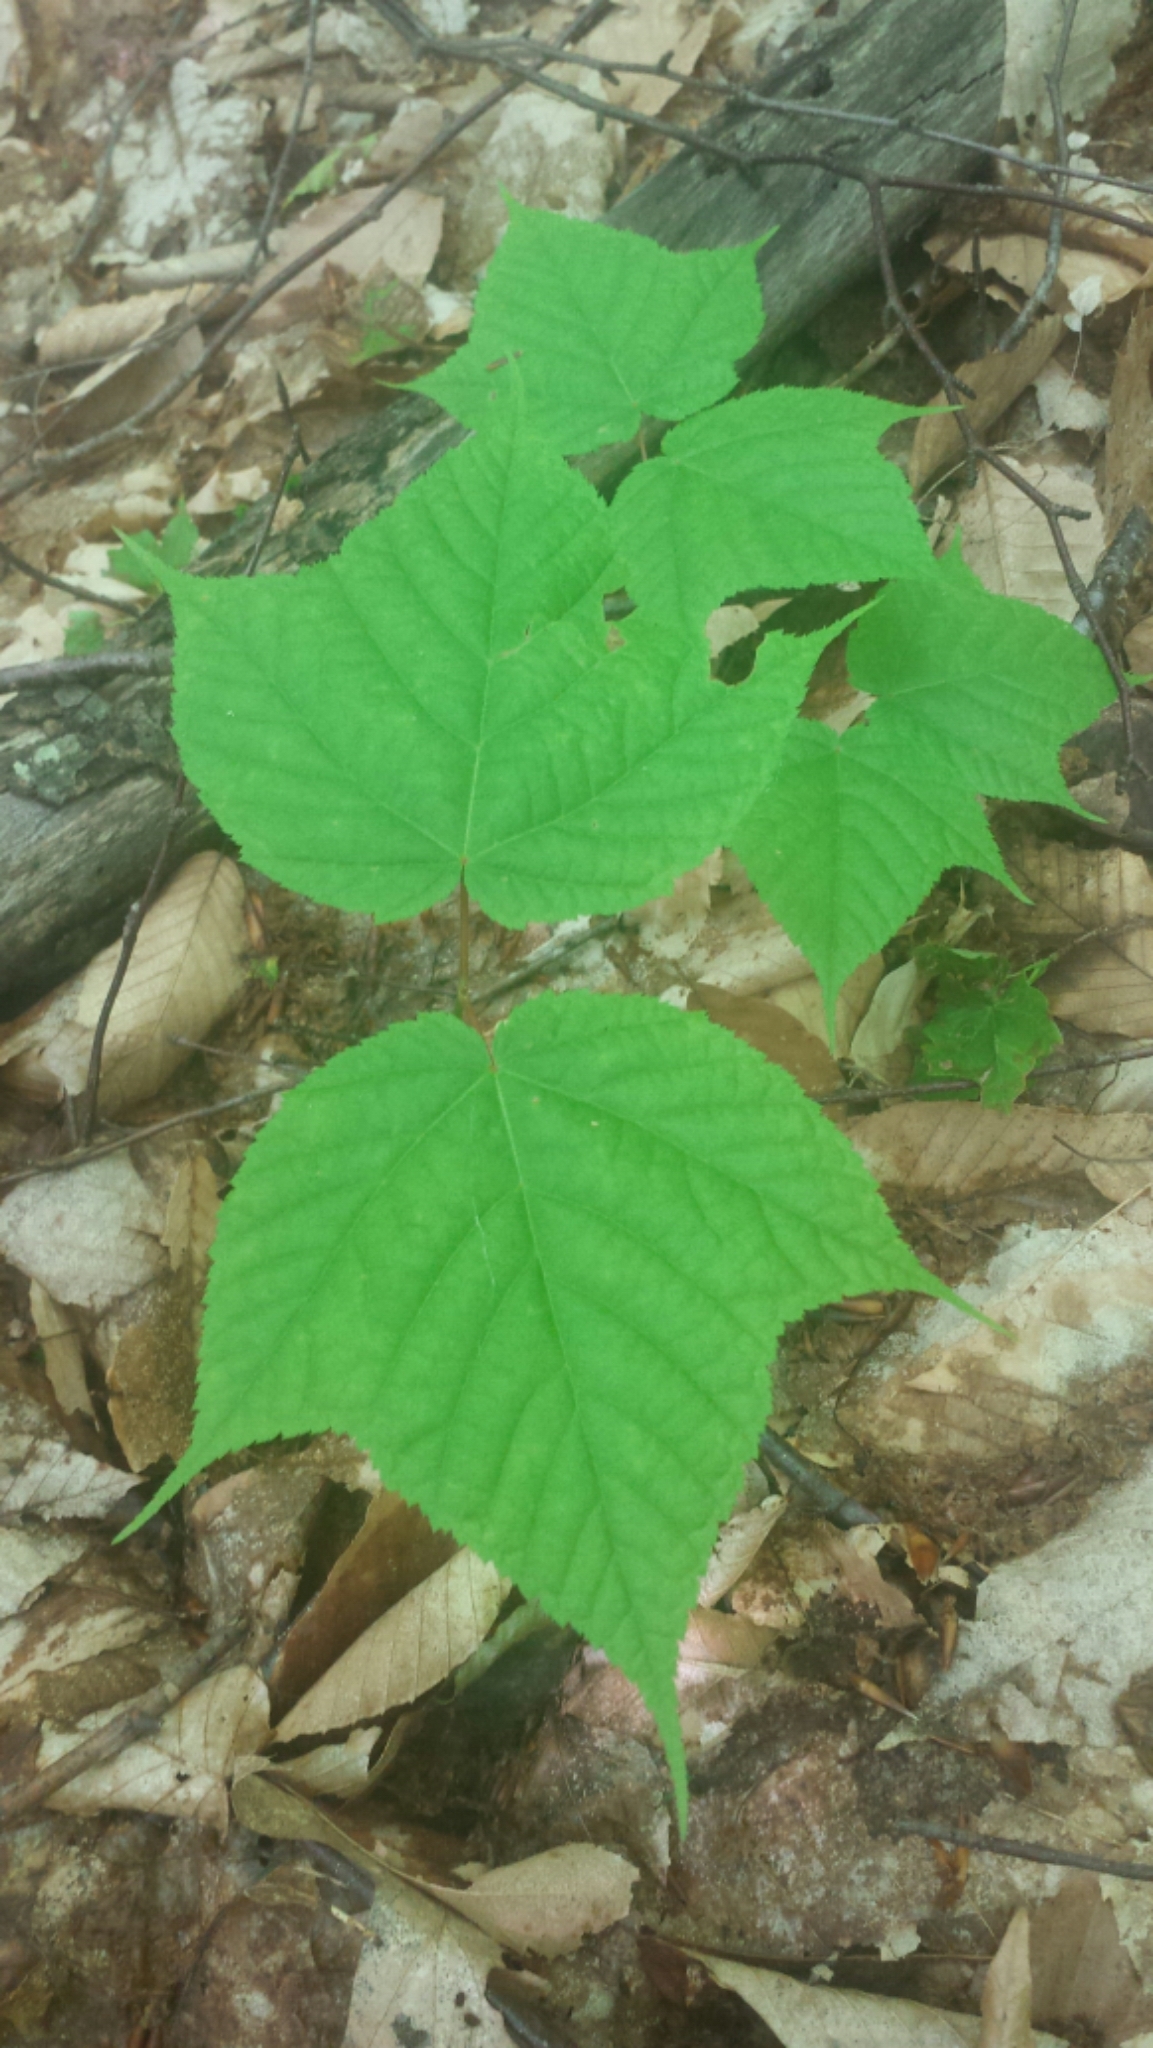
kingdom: Plantae
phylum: Tracheophyta
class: Magnoliopsida
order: Sapindales
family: Sapindaceae
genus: Acer
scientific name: Acer pensylvanicum
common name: Moosewood
